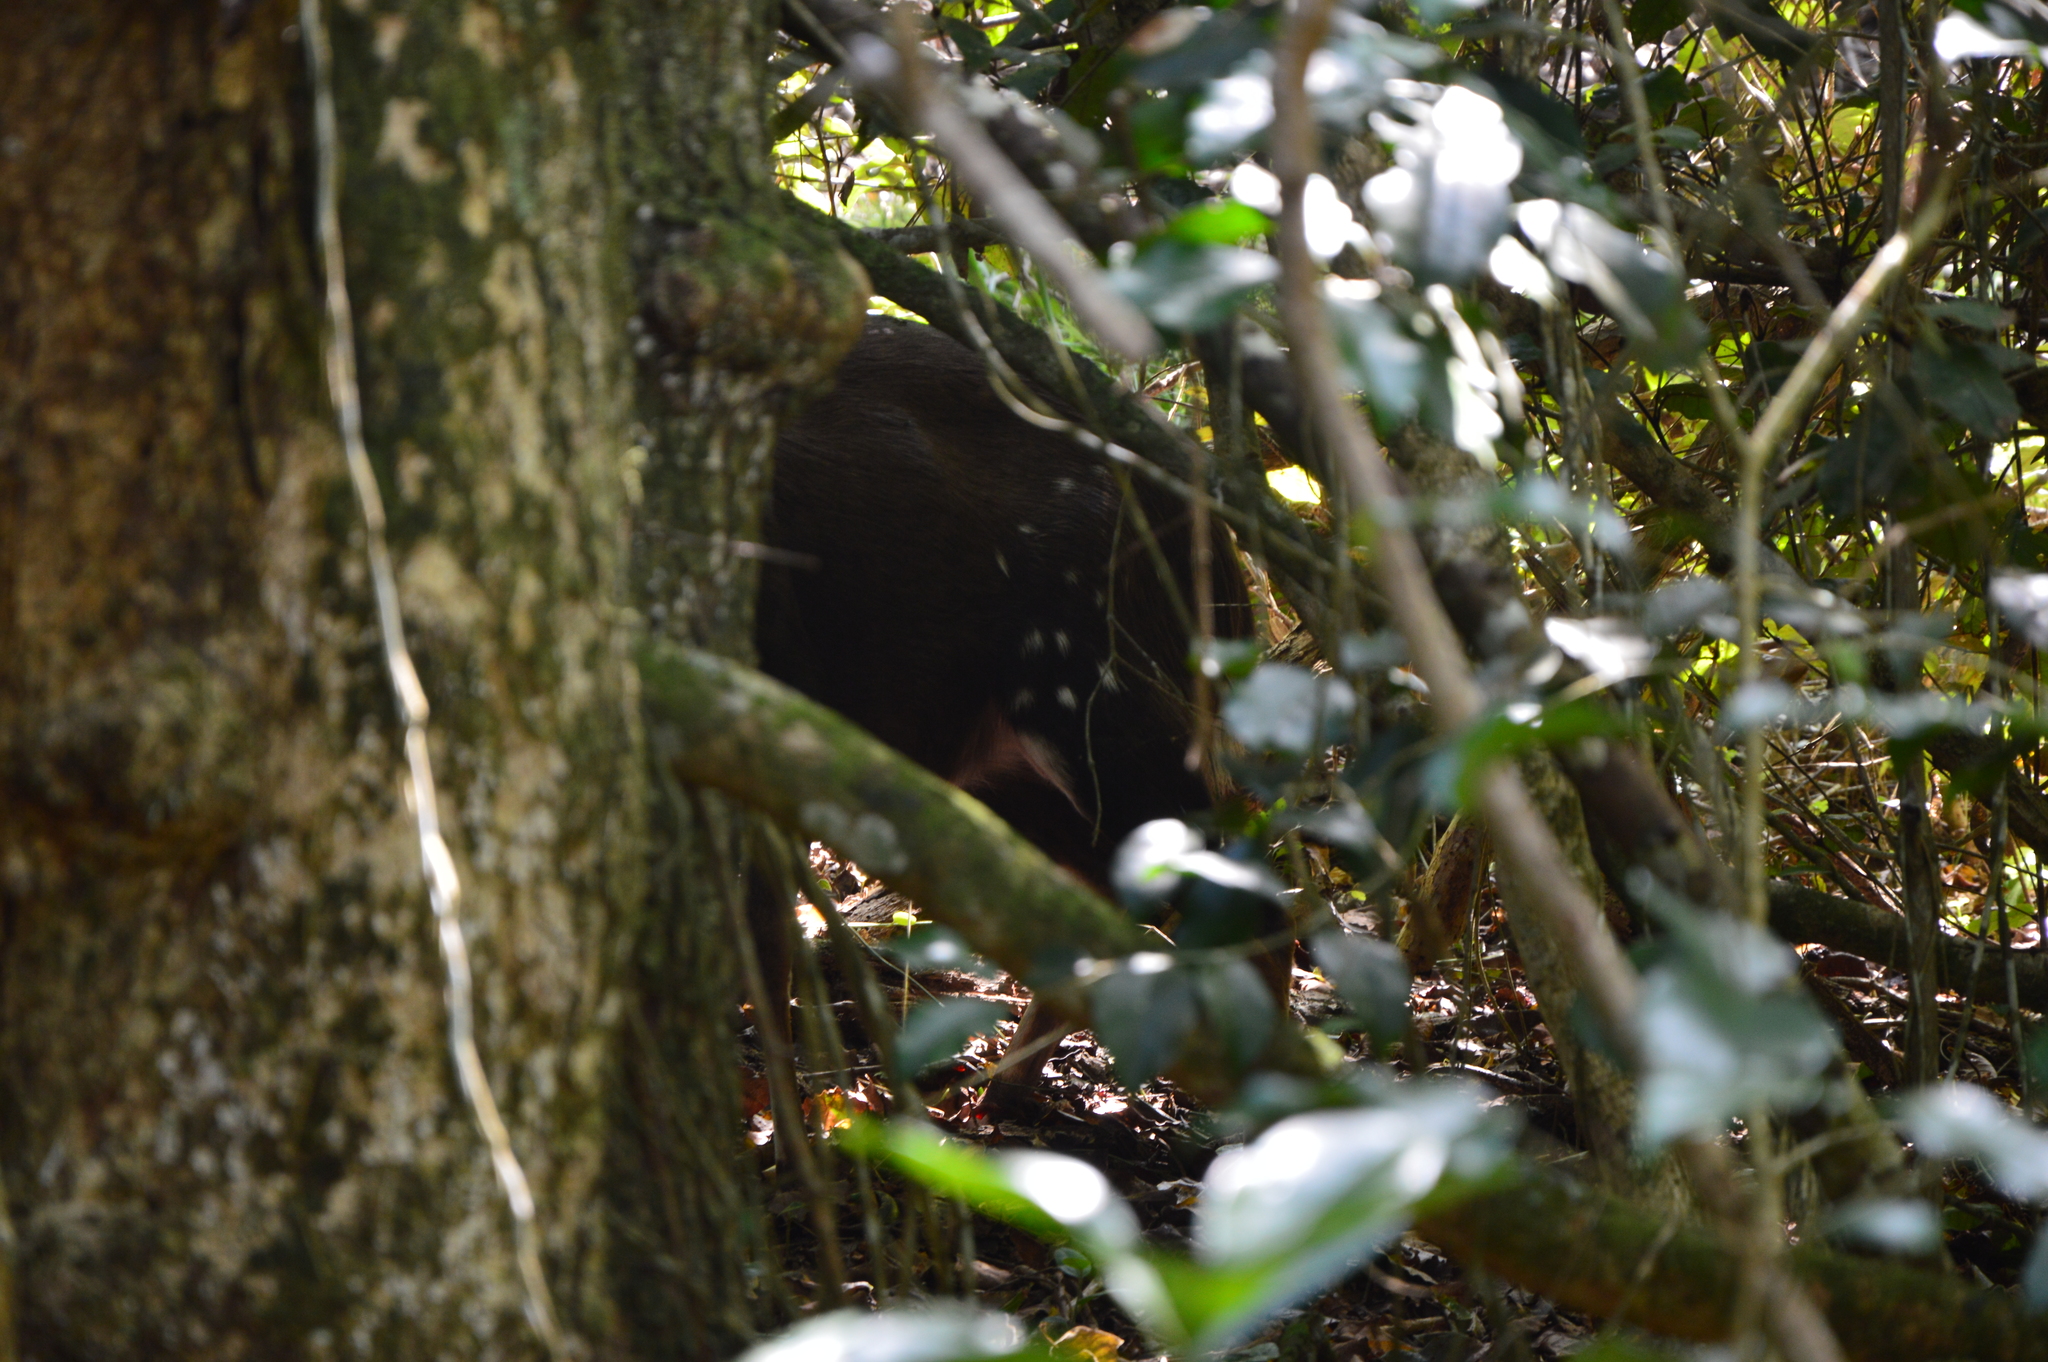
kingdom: Animalia
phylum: Chordata
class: Mammalia
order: Artiodactyla
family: Bovidae
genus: Tragelaphus
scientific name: Tragelaphus scriptus
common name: Bushbuck
